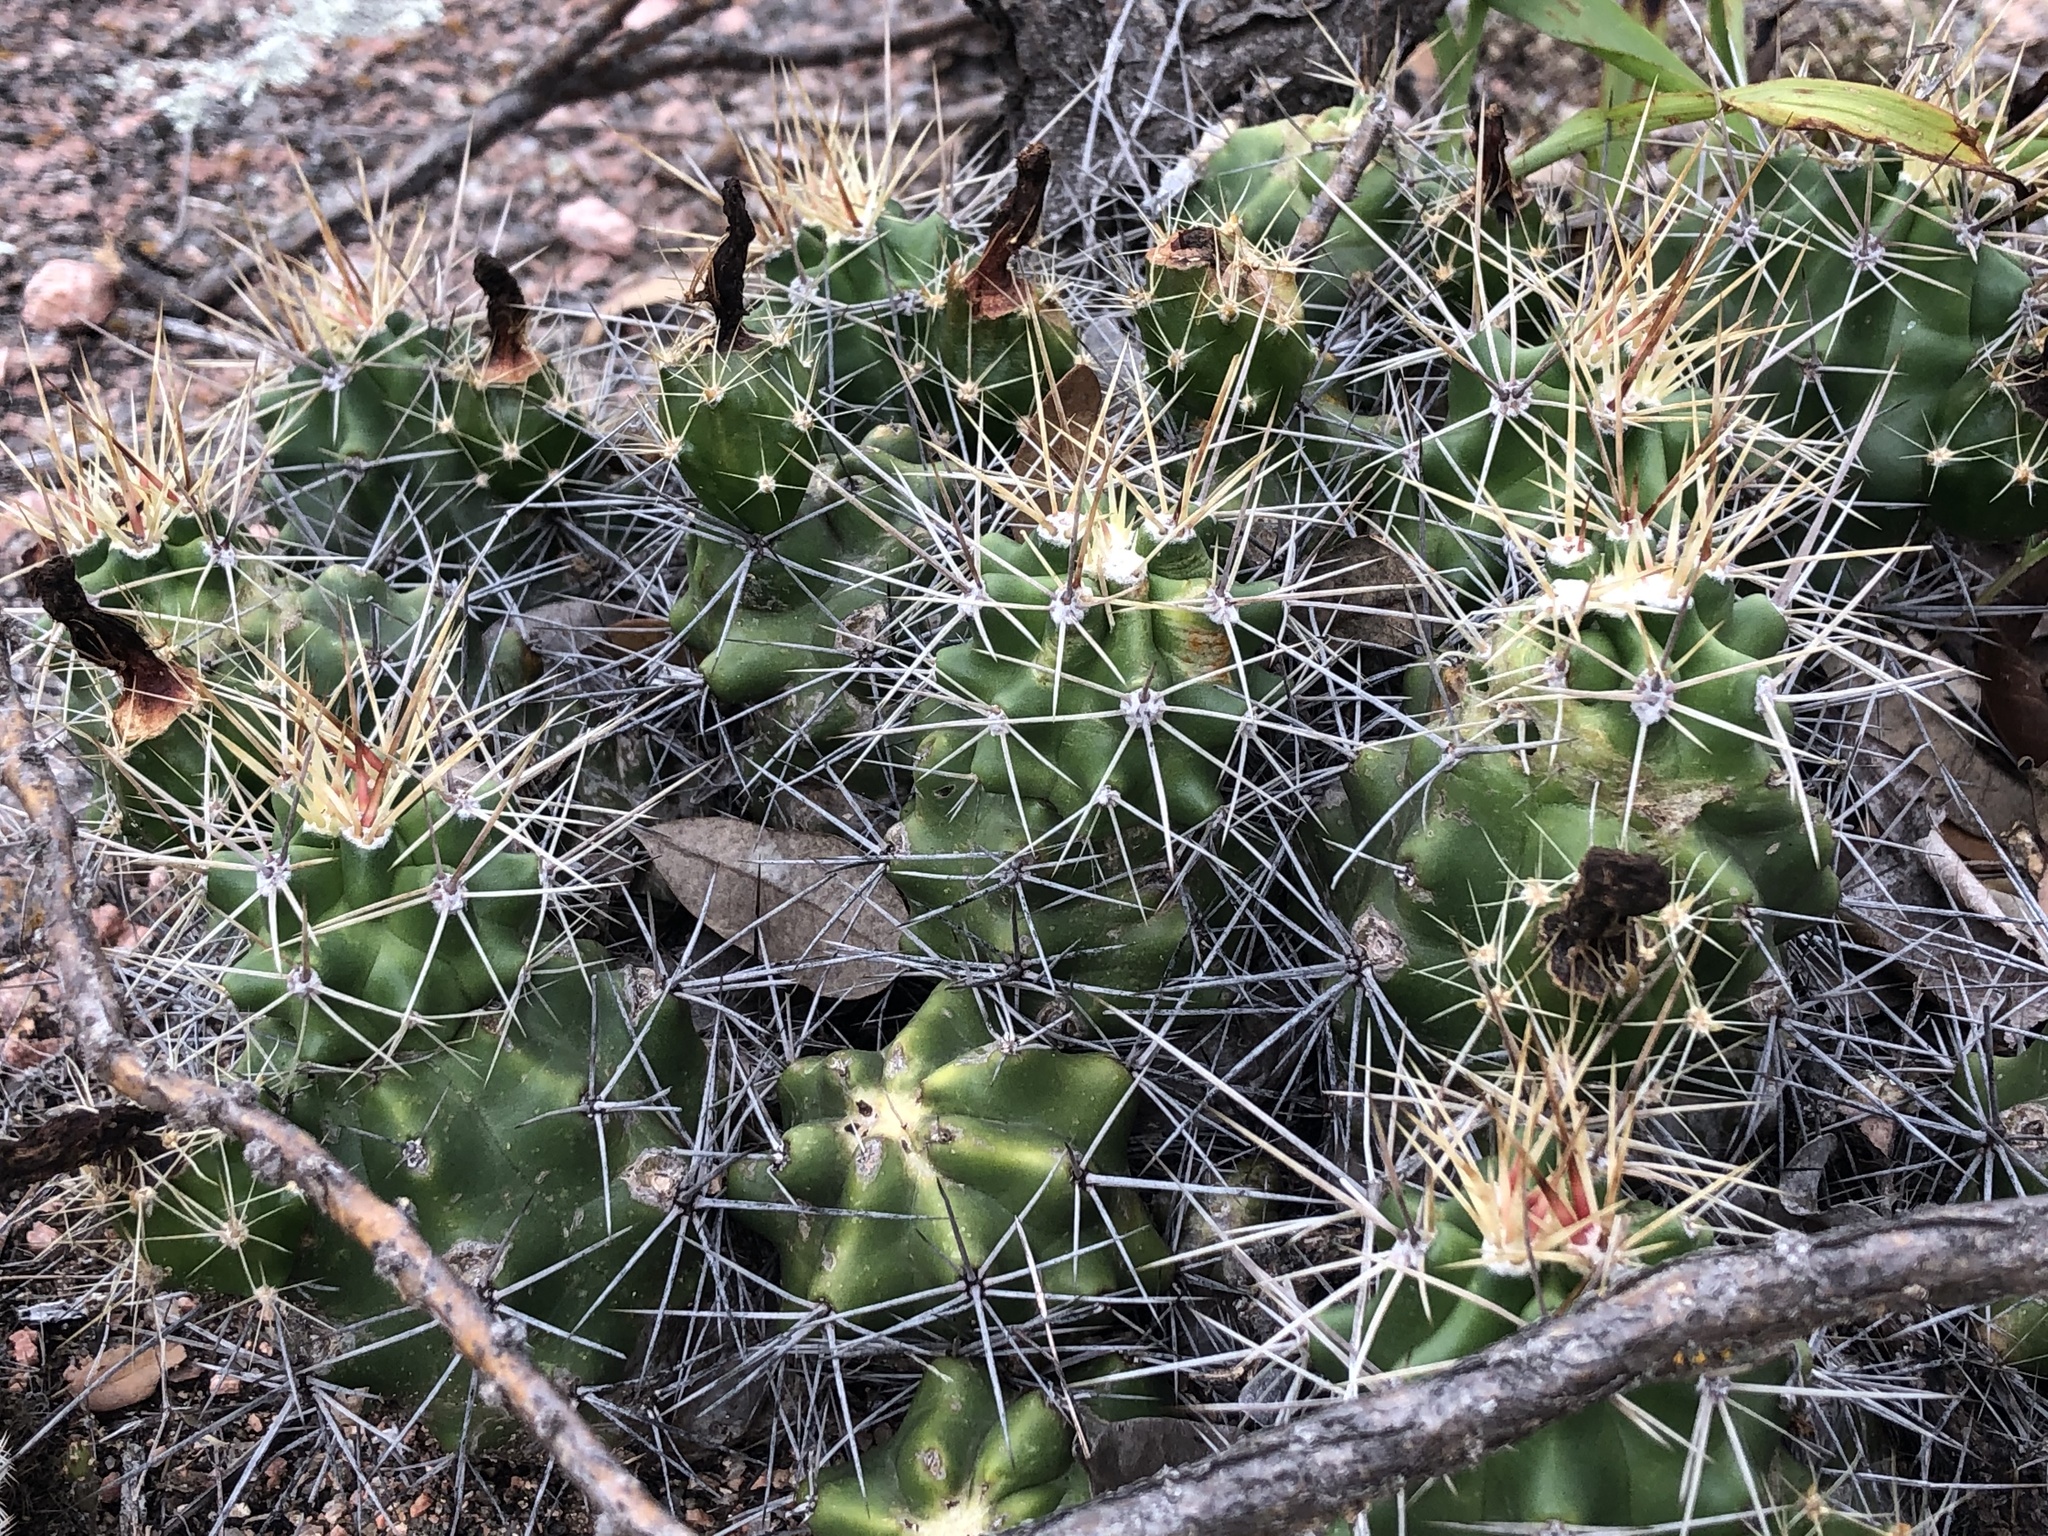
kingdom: Plantae
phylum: Tracheophyta
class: Magnoliopsida
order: Caryophyllales
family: Cactaceae
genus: Echinocereus
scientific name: Echinocereus coccineus
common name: Scarlet hedgehog cactus
